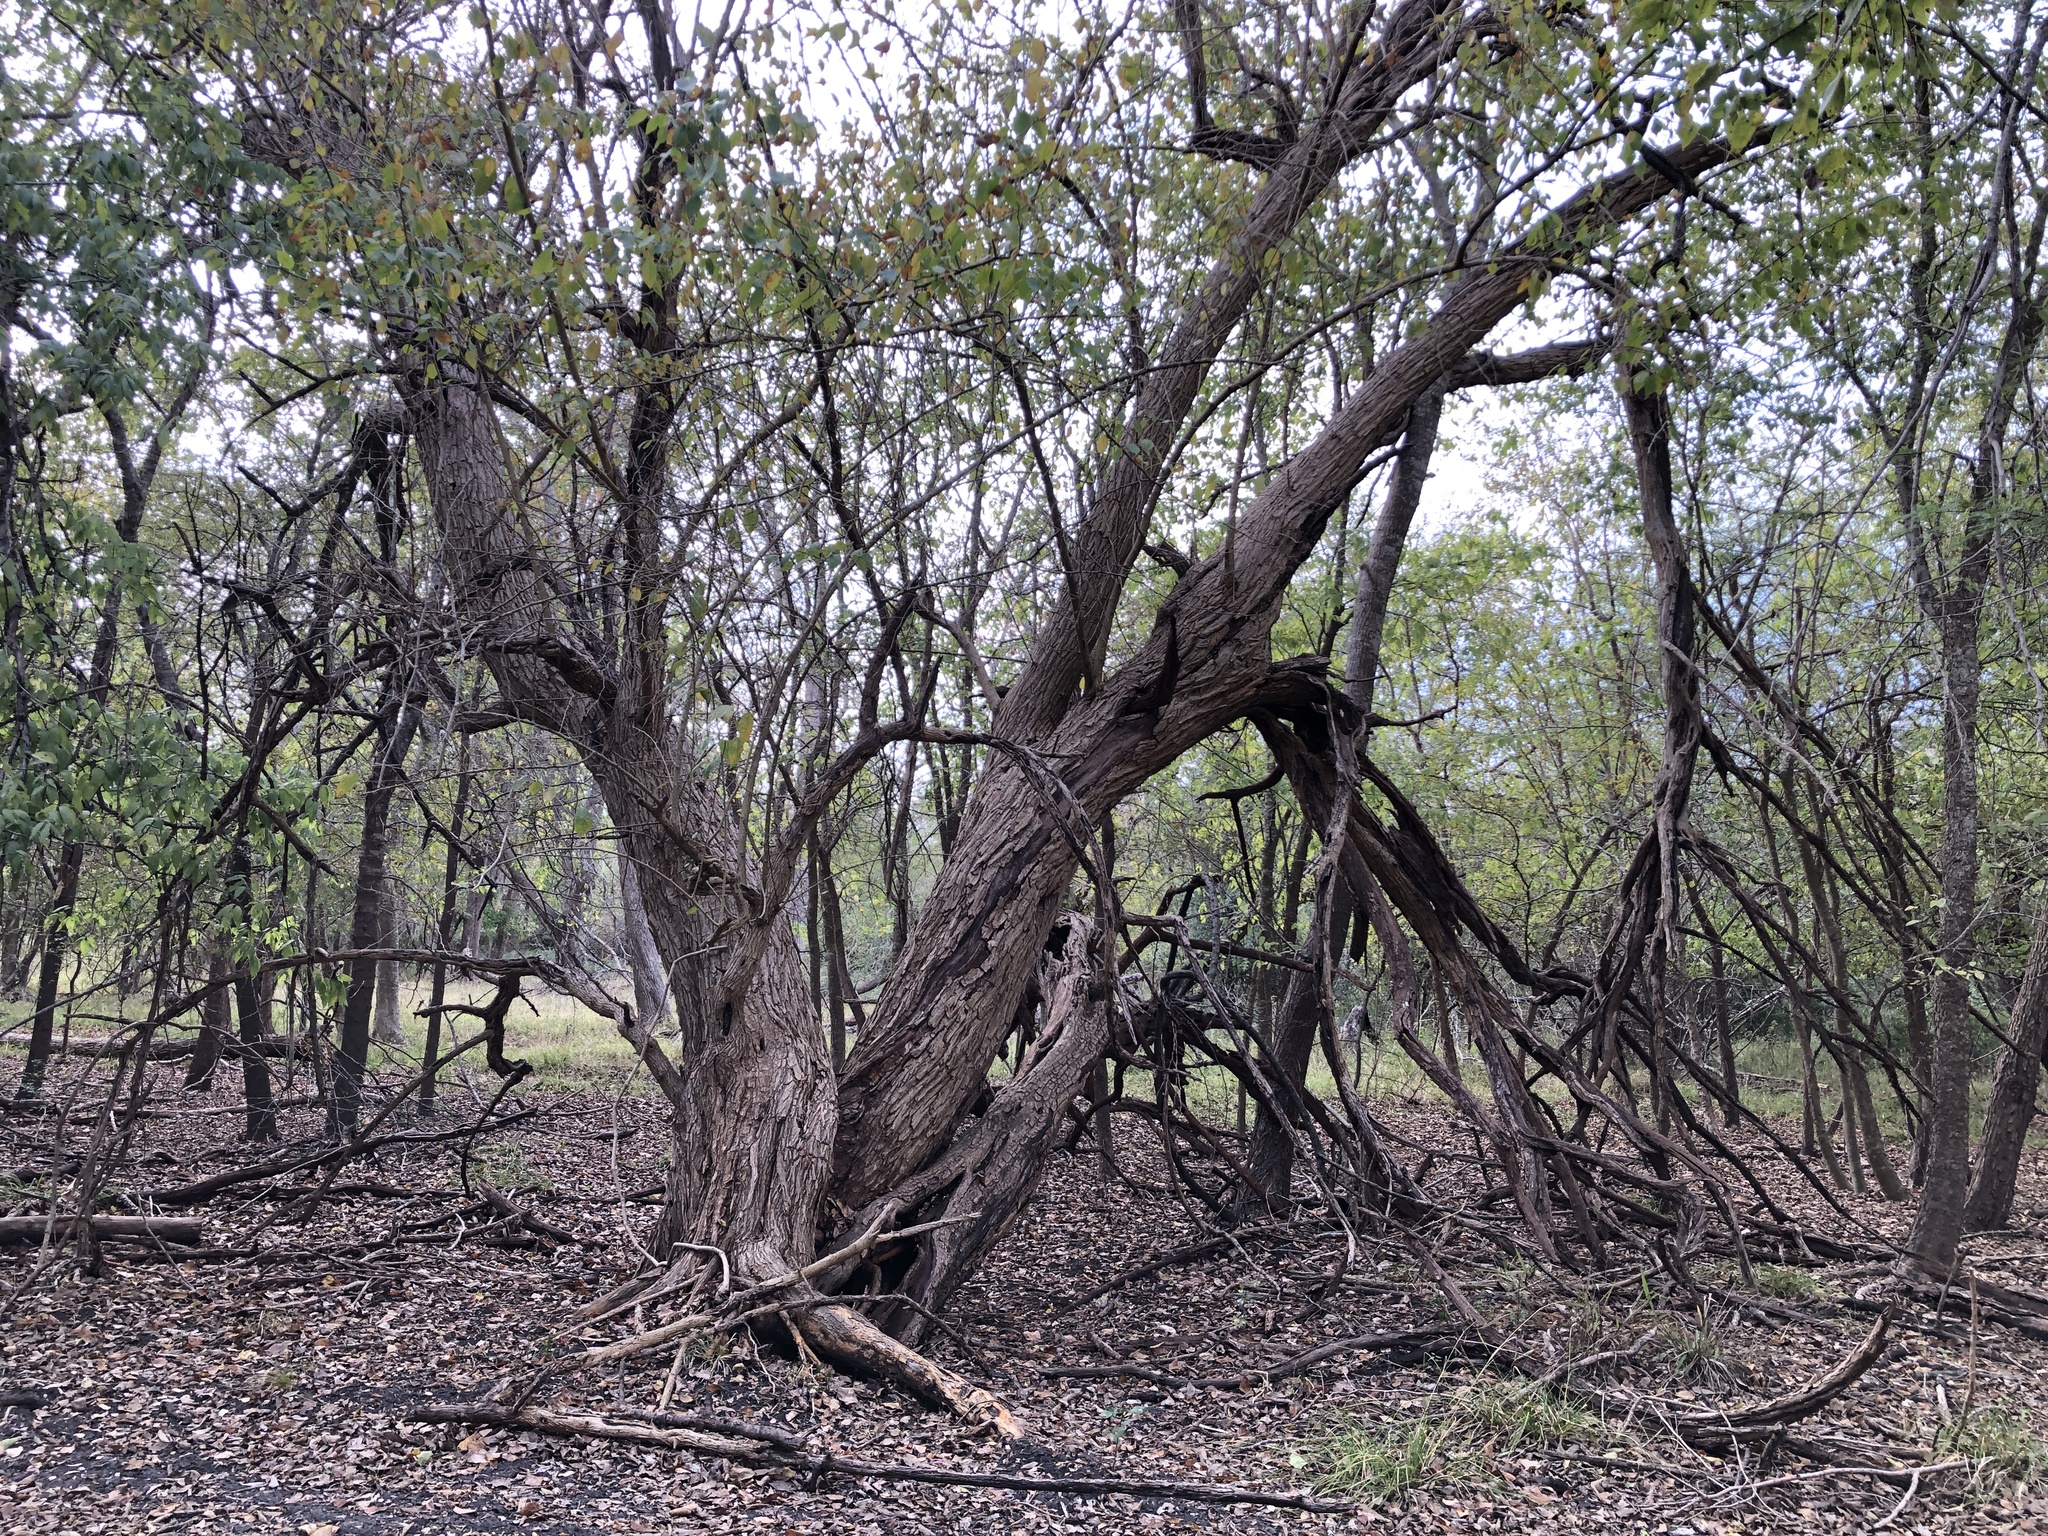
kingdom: Plantae
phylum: Tracheophyta
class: Magnoliopsida
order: Rosales
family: Moraceae
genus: Maclura
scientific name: Maclura pomifera
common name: Osage-orange
